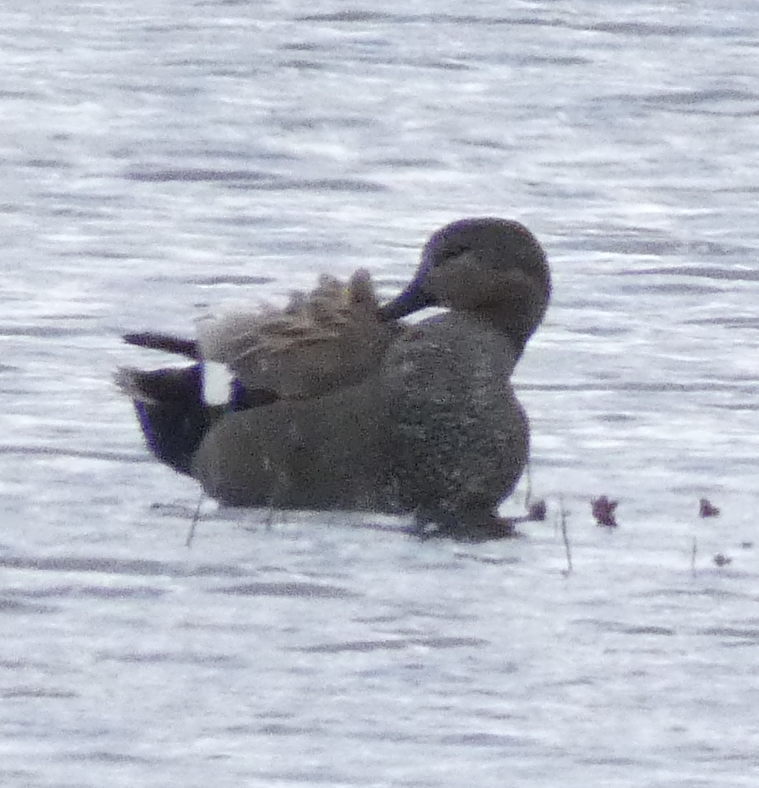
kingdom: Animalia
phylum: Chordata
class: Aves
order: Anseriformes
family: Anatidae
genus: Mareca
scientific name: Mareca strepera
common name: Gadwall
